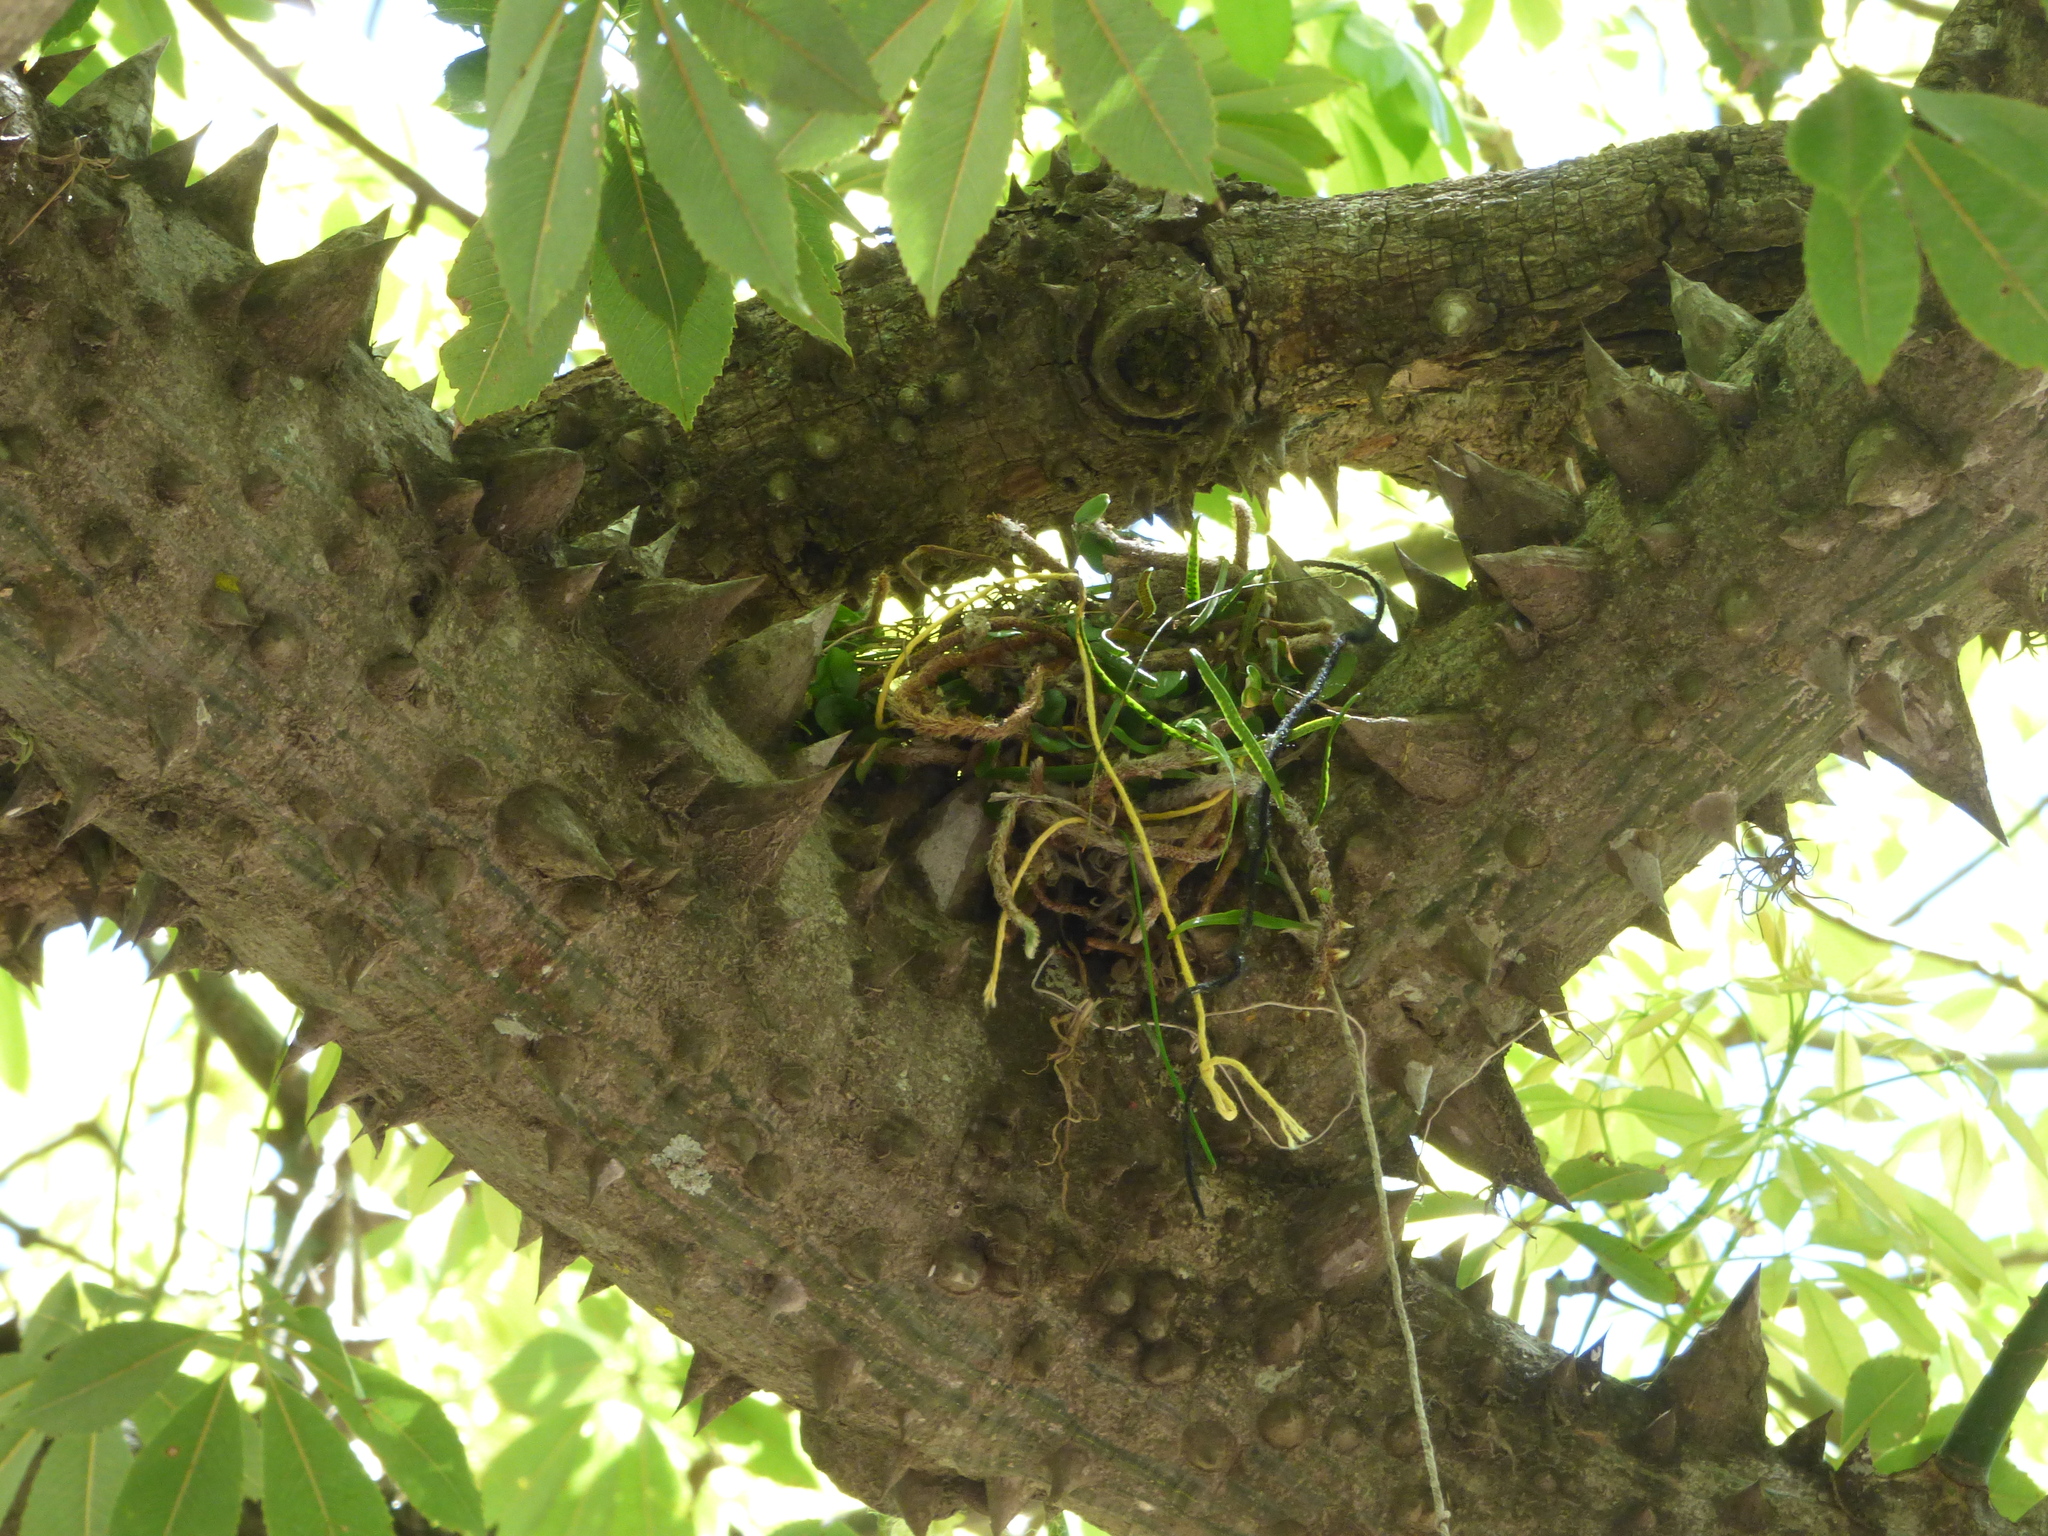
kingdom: Animalia
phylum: Chordata
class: Aves
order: Passeriformes
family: Turdidae
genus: Turdus
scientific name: Turdus amaurochalinus
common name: Creamy-bellied thrush
